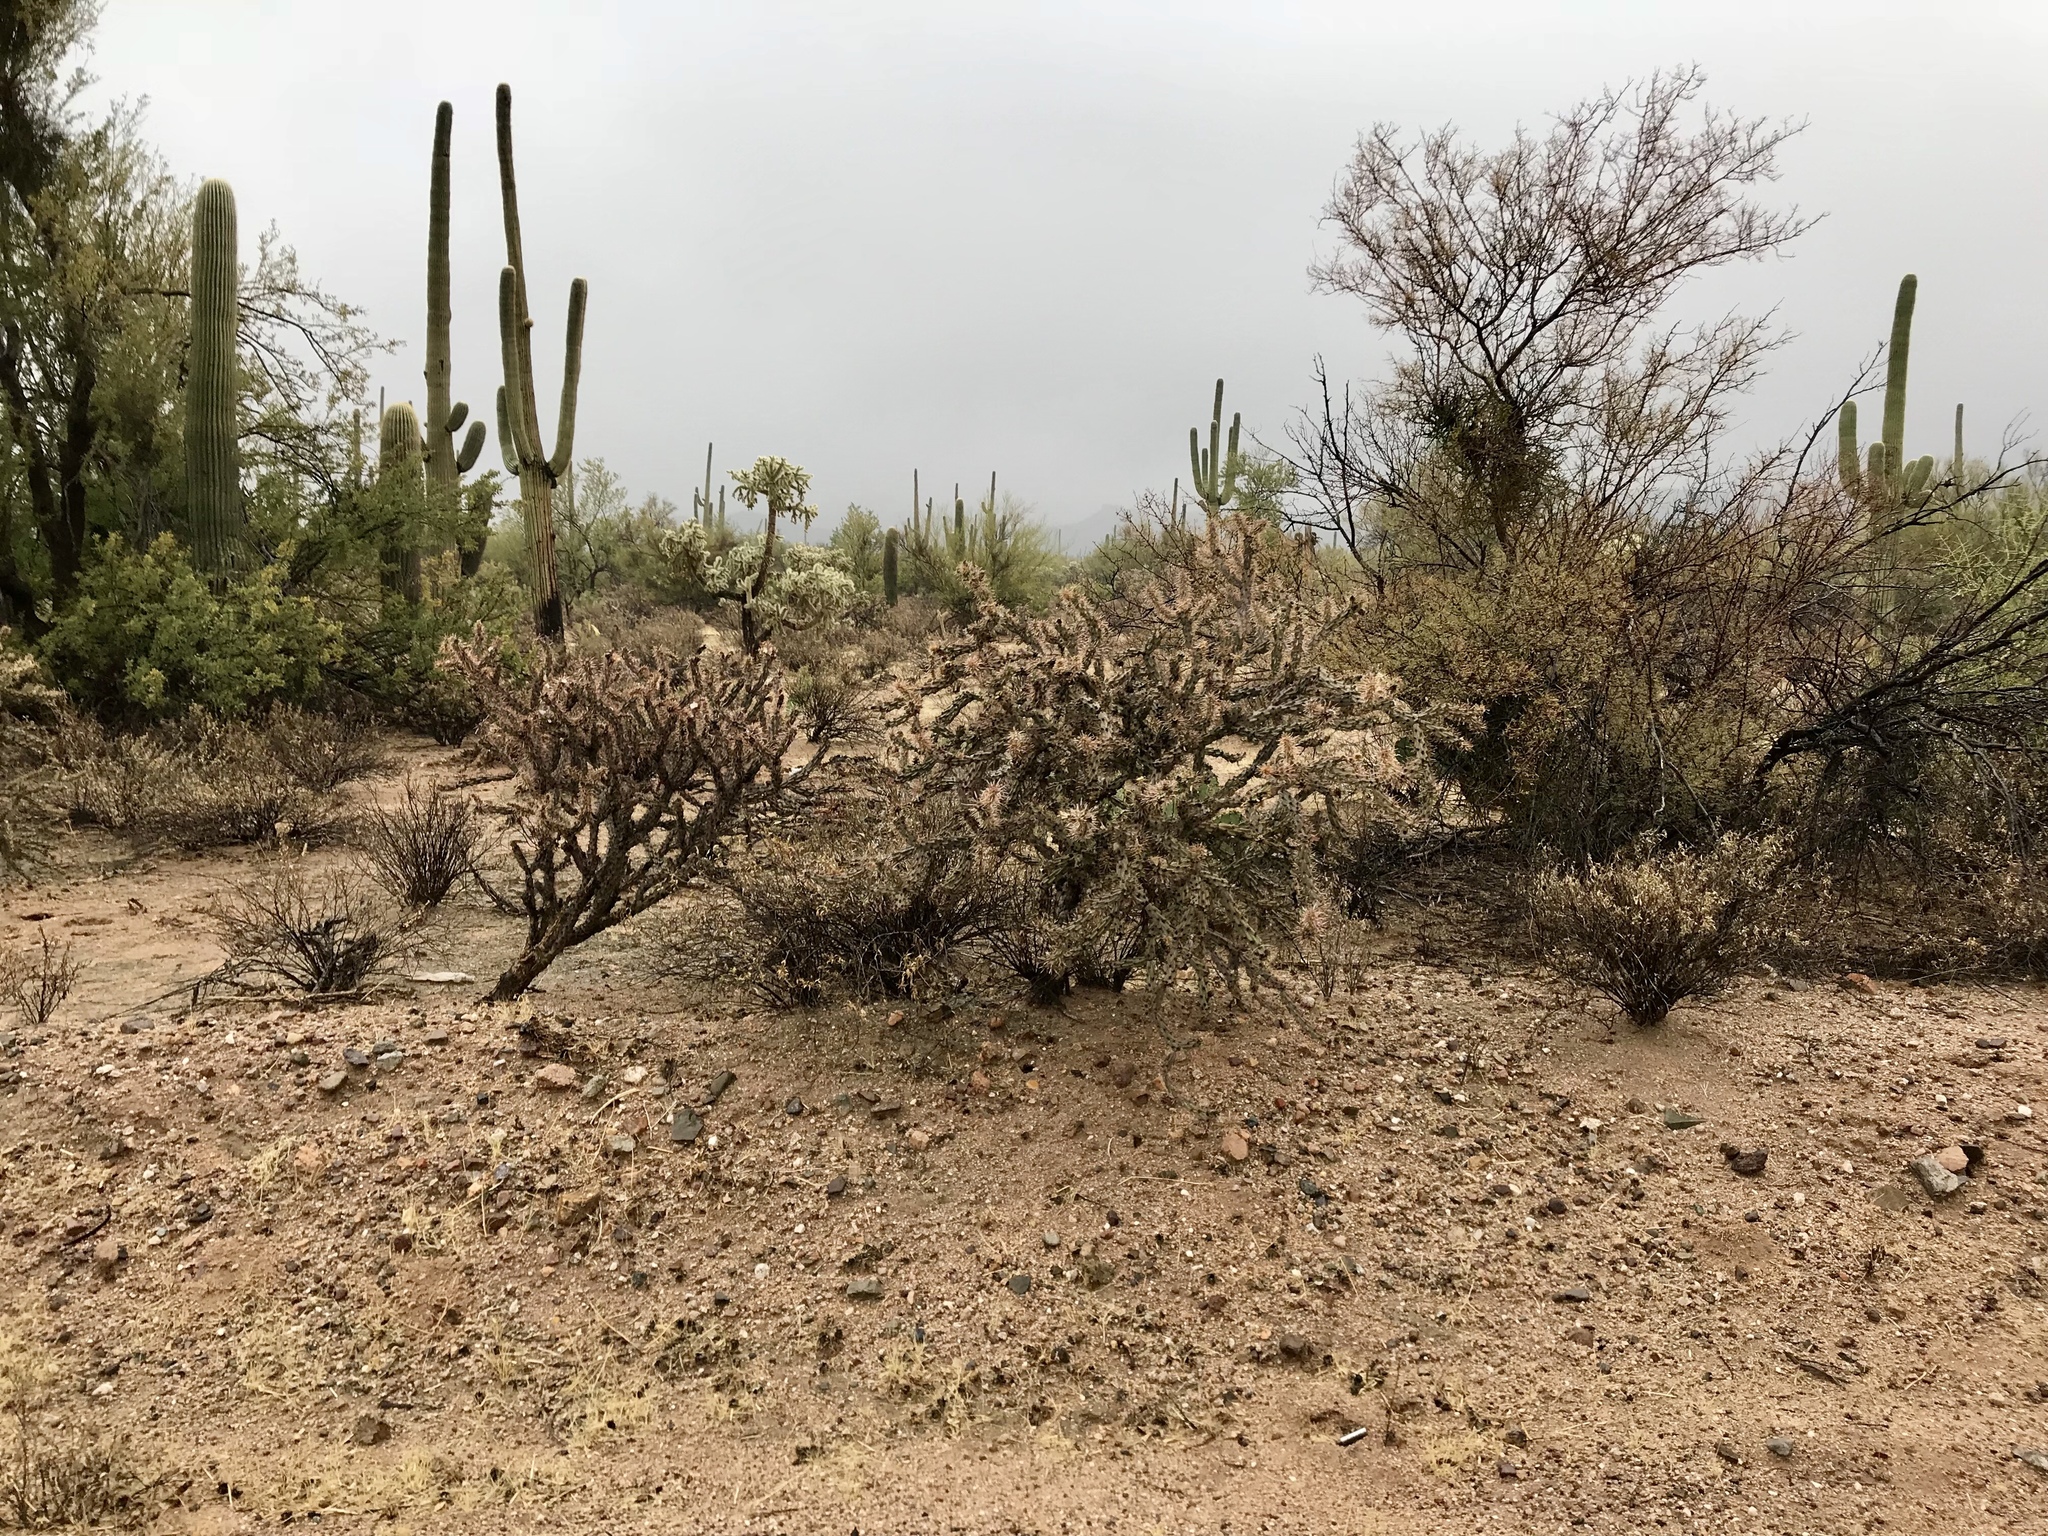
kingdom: Plantae
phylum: Tracheophyta
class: Magnoliopsida
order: Caryophyllales
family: Cactaceae
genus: Cylindropuntia
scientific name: Cylindropuntia acanthocarpa
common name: Buckhorn cholla
